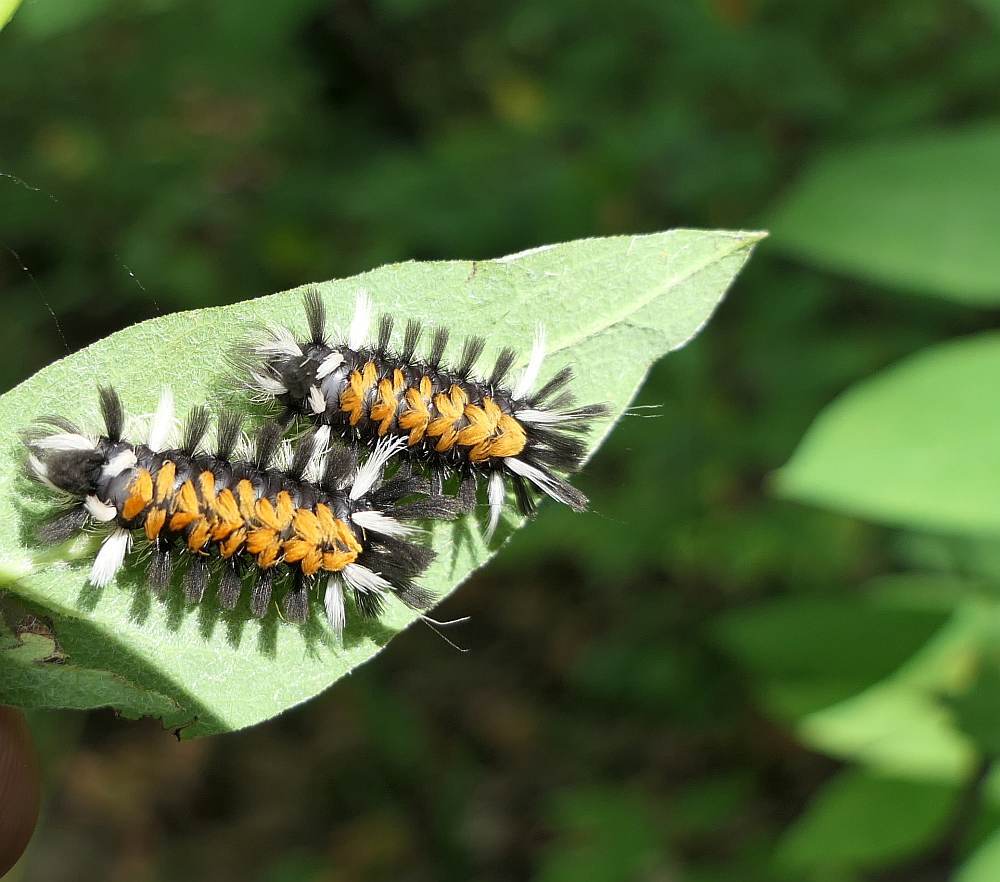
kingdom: Animalia
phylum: Arthropoda
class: Insecta
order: Lepidoptera
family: Erebidae
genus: Euchaetes
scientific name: Euchaetes egle
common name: Milkweed tussock moth
